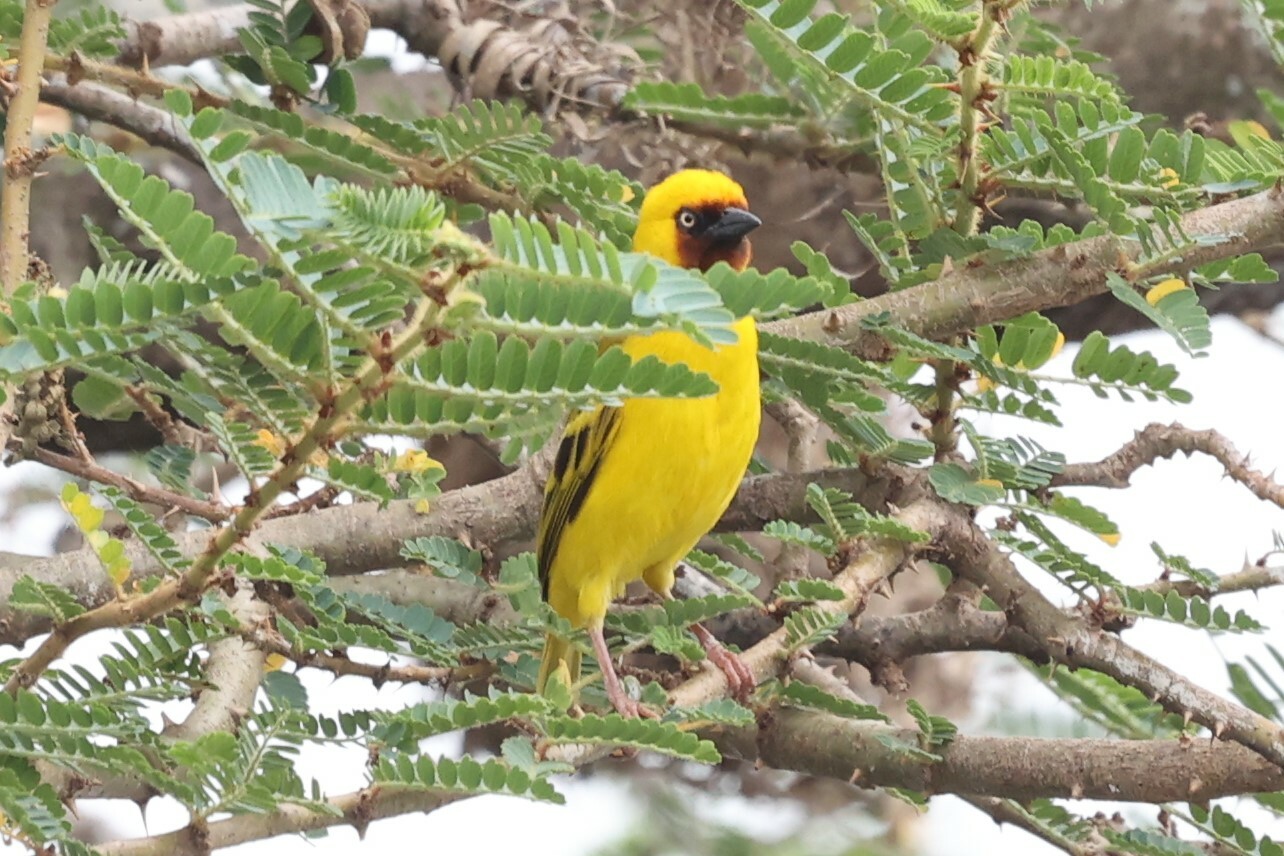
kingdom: Animalia
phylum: Chordata
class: Aves
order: Passeriformes
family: Ploceidae
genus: Ploceus
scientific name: Ploceus castanops
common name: Northern brown-throated weaver
